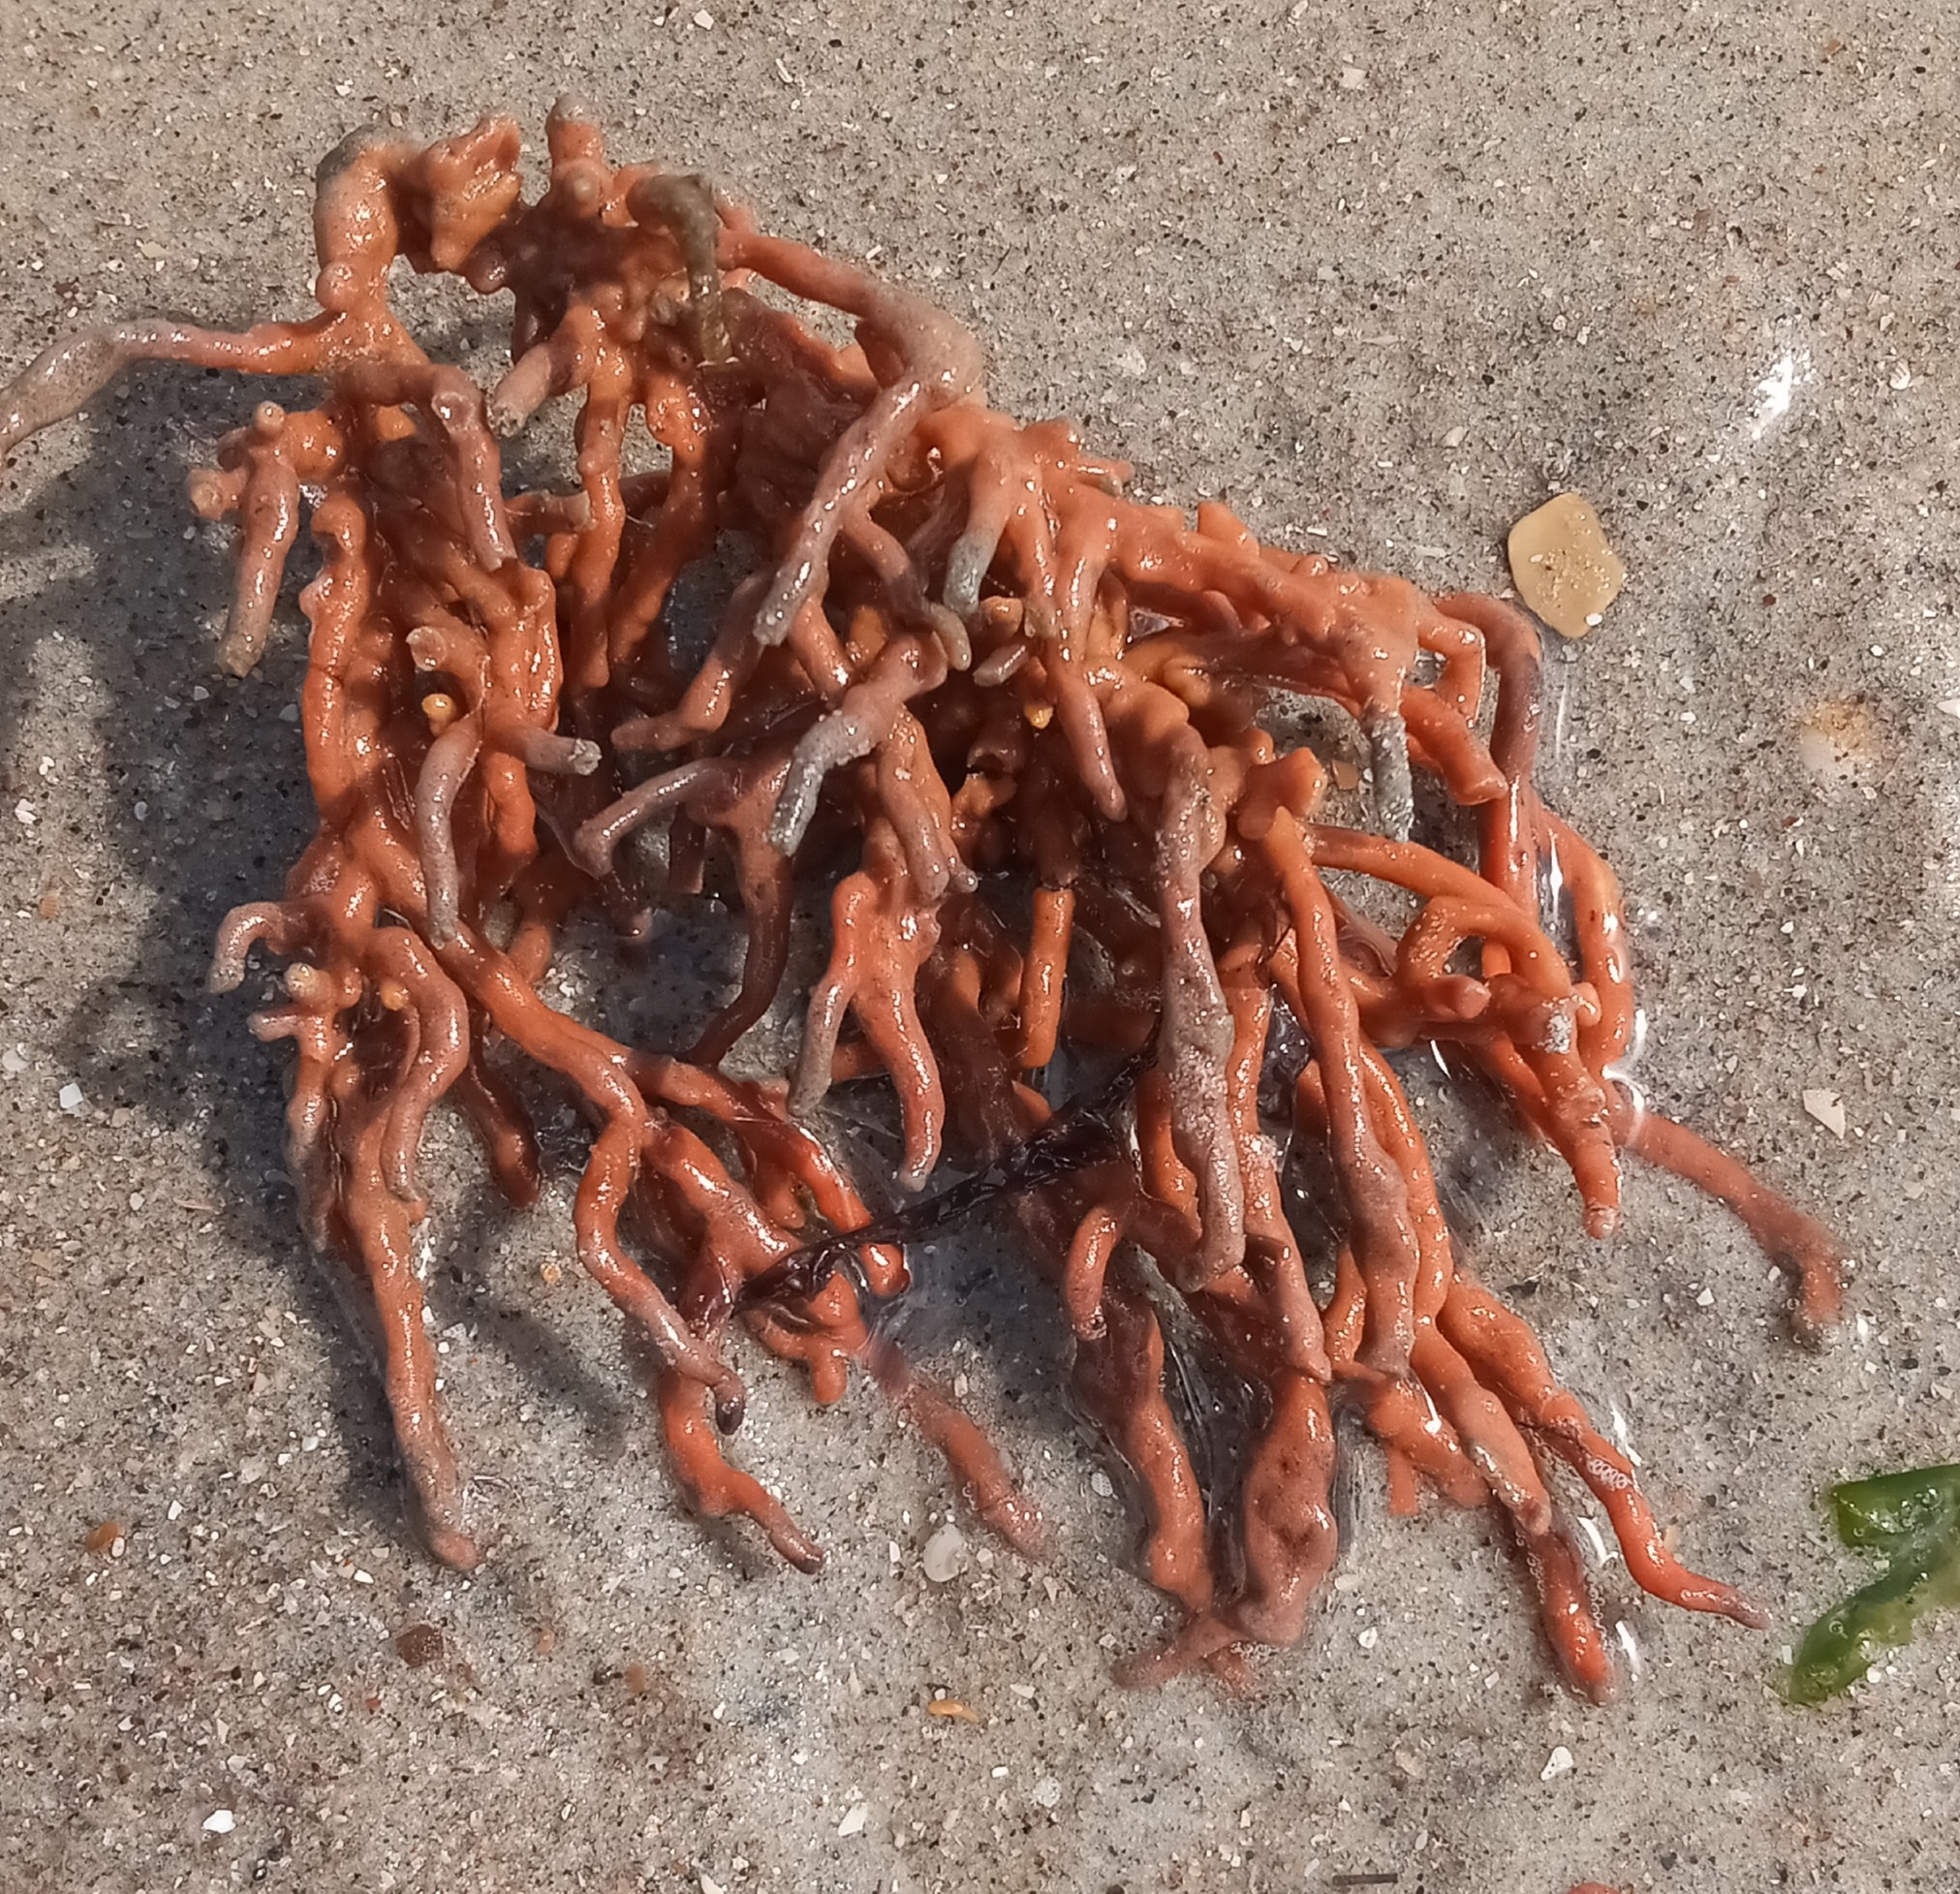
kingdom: Animalia
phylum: Porifera
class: Demospongiae
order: Poecilosclerida
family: Microcionidae
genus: Clathria
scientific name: Clathria prolifera
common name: Red beard sponge
